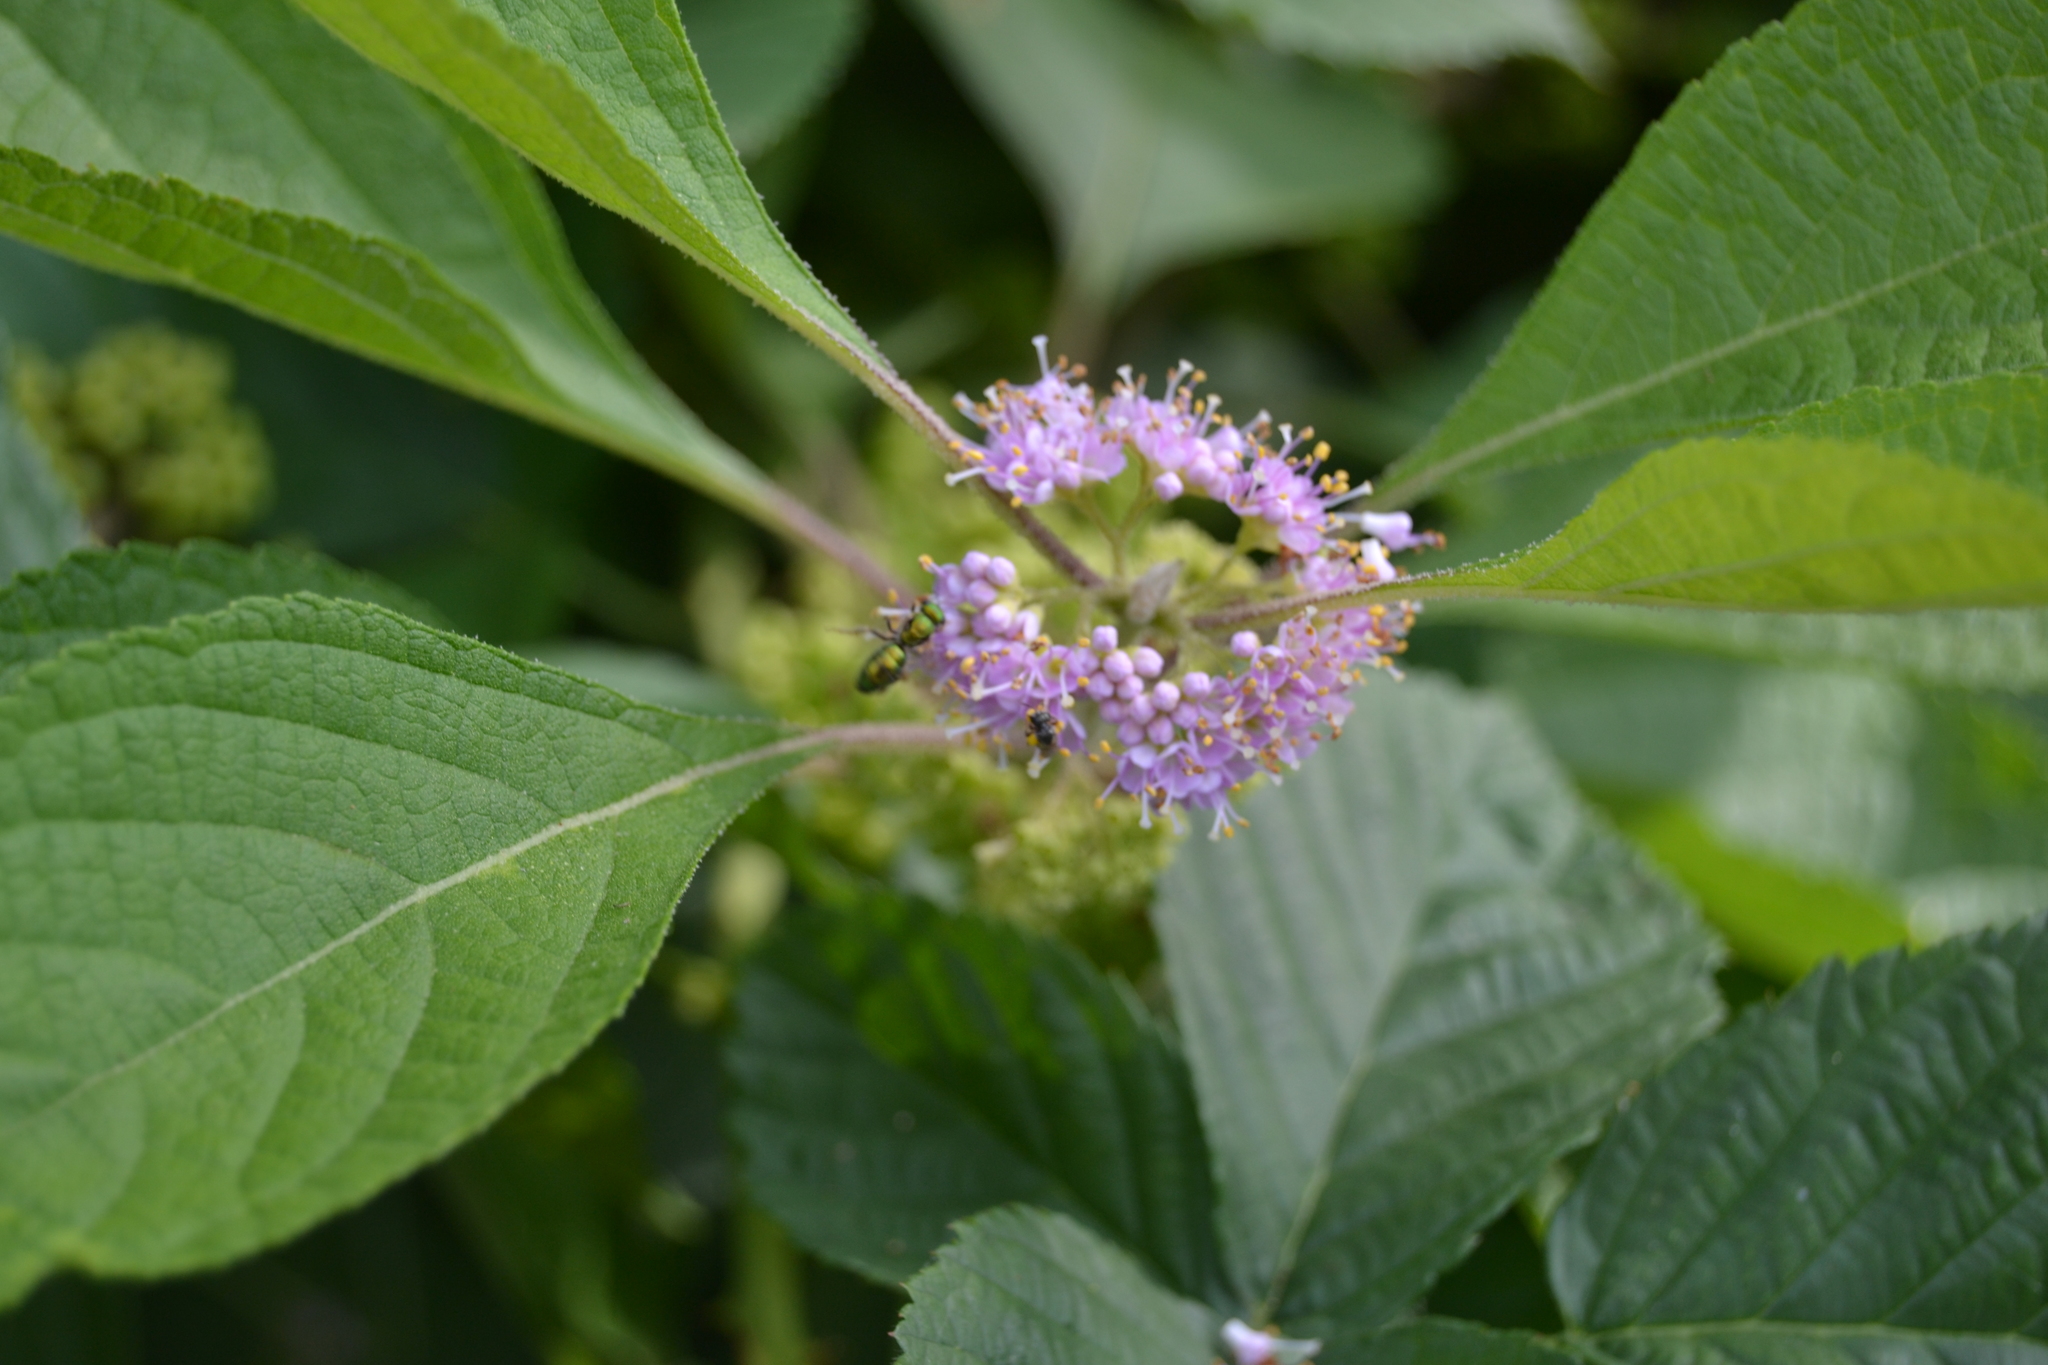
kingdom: Animalia
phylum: Arthropoda
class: Insecta
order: Hymenoptera
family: Halictidae
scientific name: Halictidae
